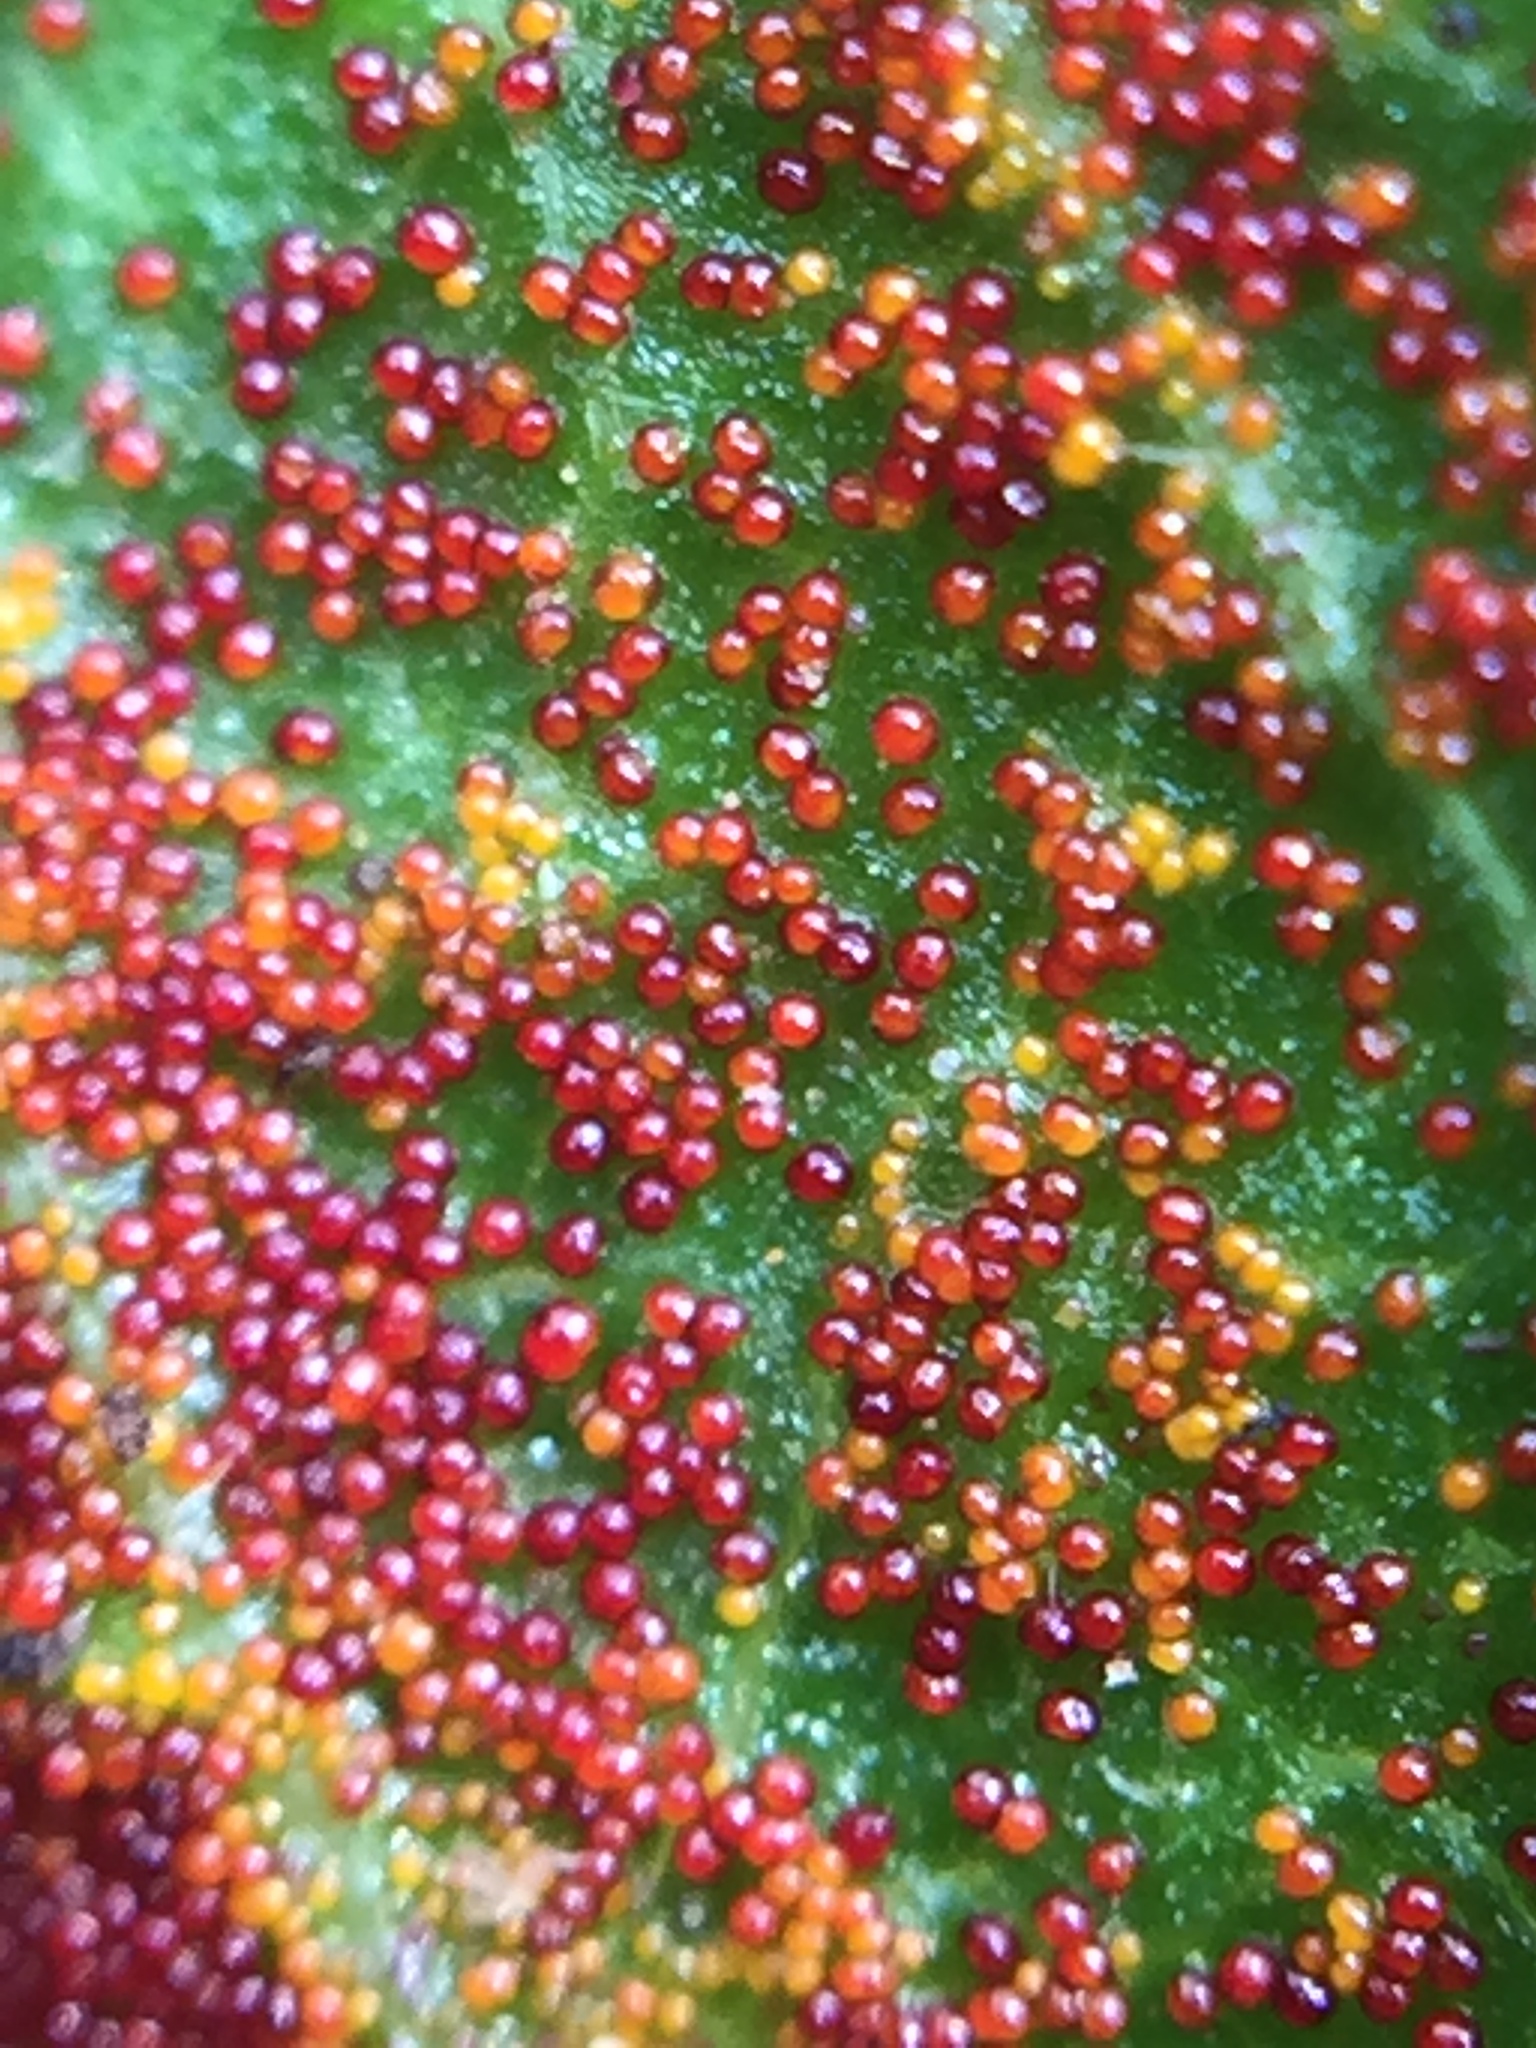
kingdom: Fungi
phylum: Chytridiomycota
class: Chytridiomycetes
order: Chytridiales
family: Synchytriaceae
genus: Synchytrium
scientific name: Synchytrium australe
